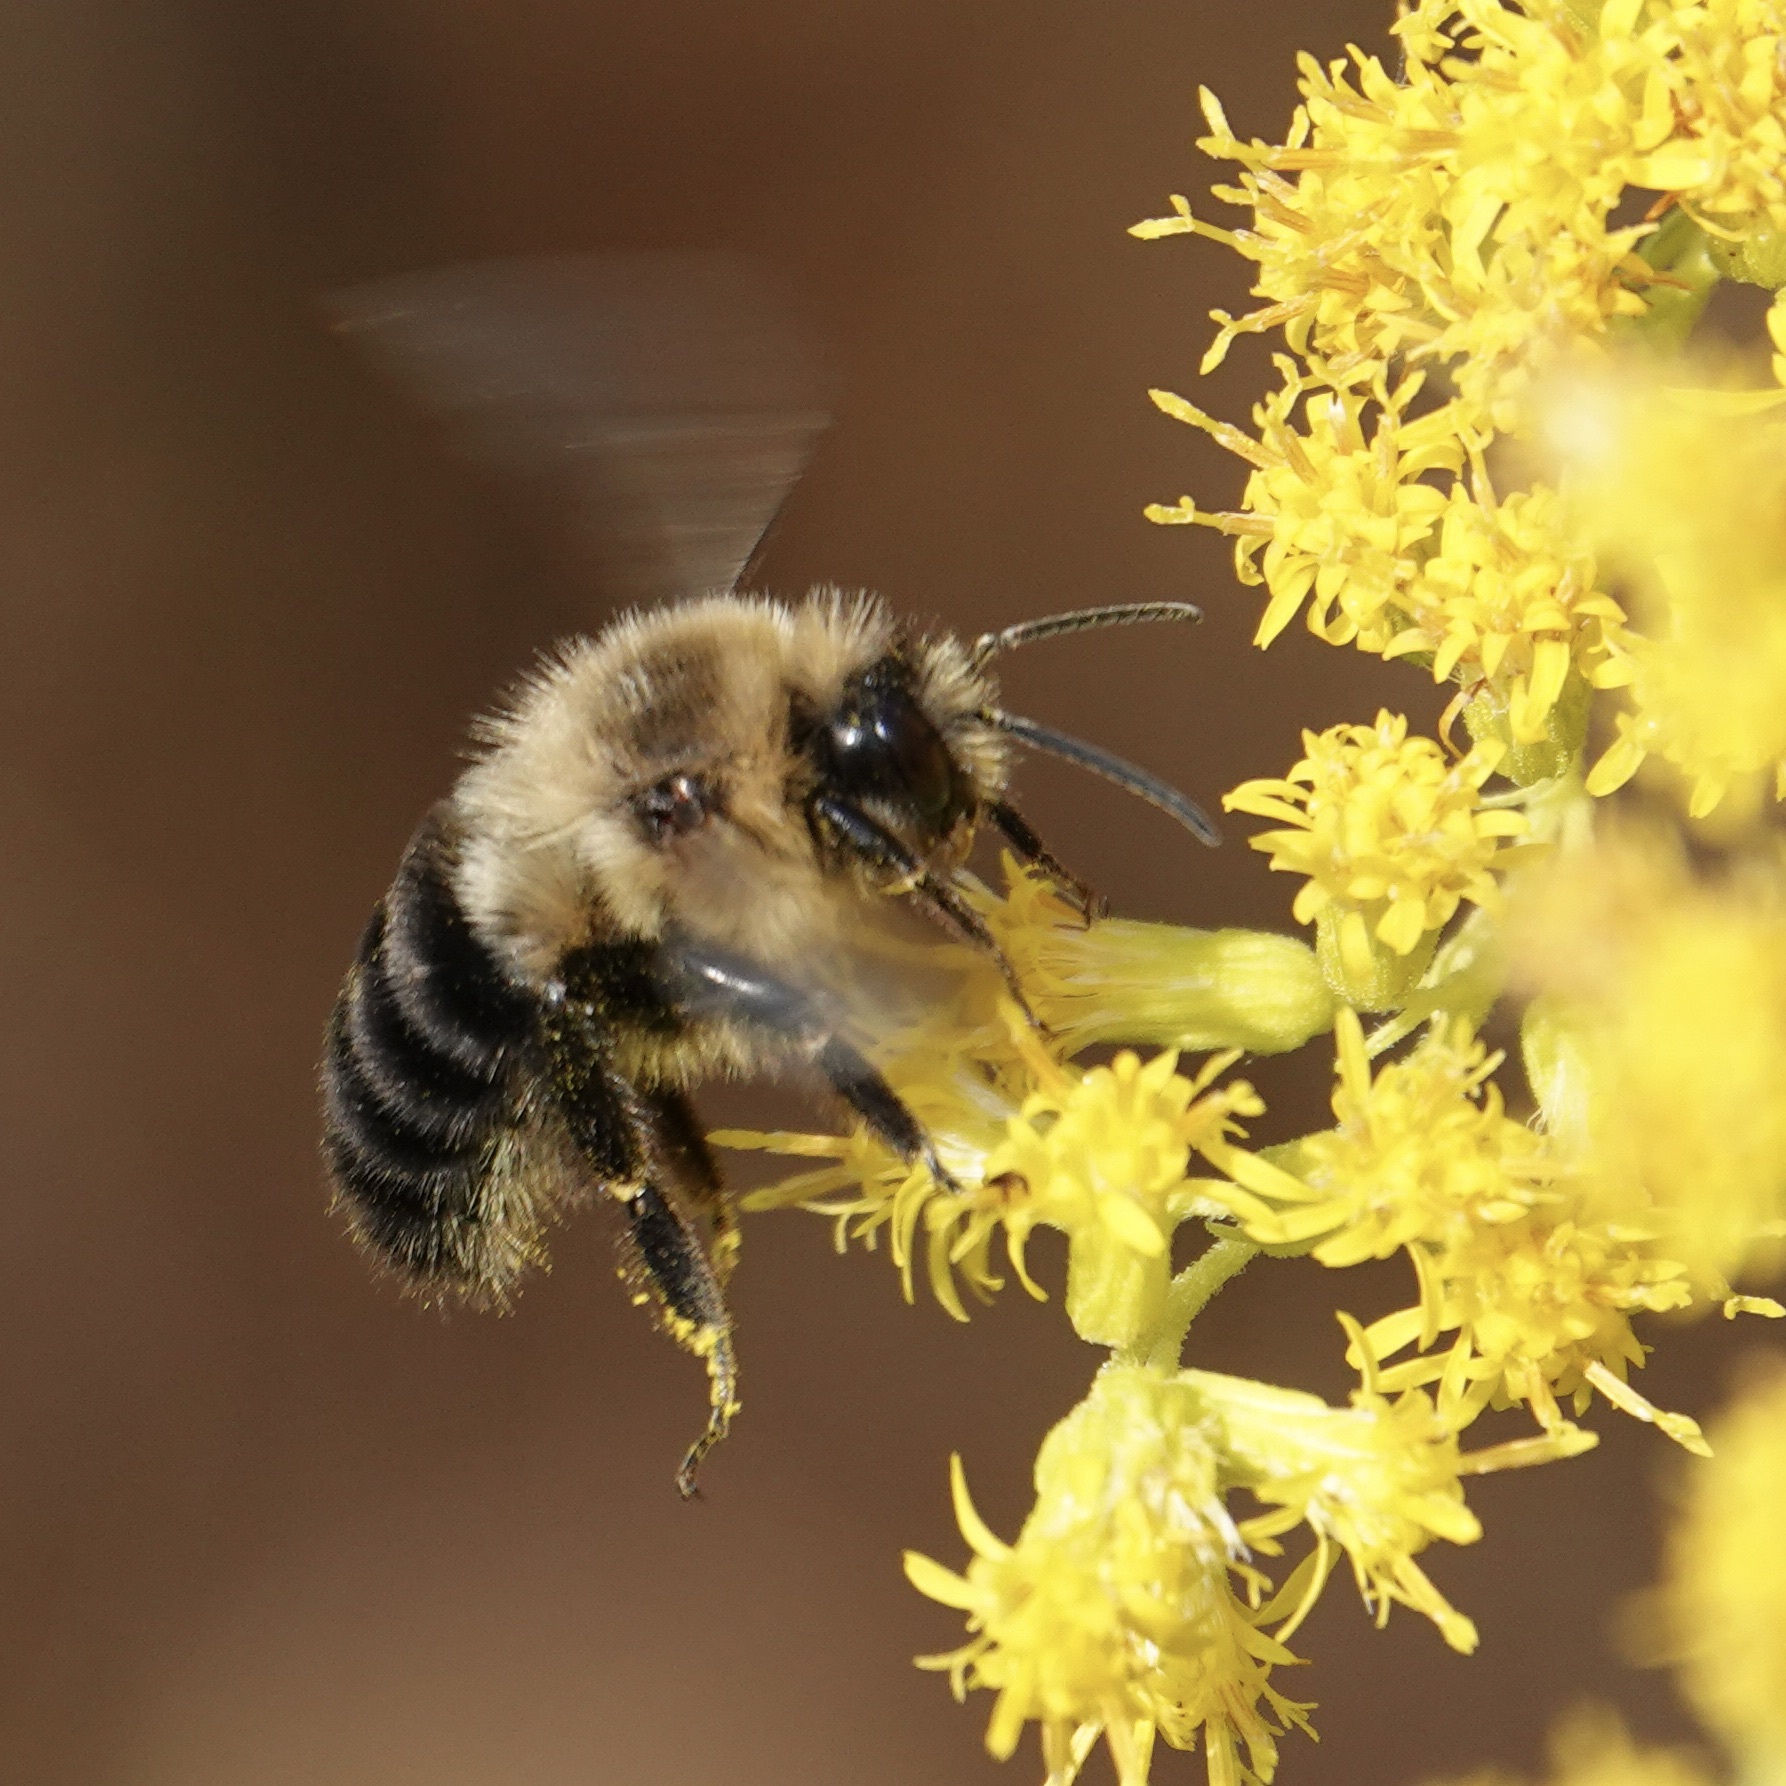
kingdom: Animalia
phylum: Arthropoda
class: Insecta
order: Hymenoptera
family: Apidae
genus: Bombus
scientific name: Bombus impatiens
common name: Common eastern bumble bee
